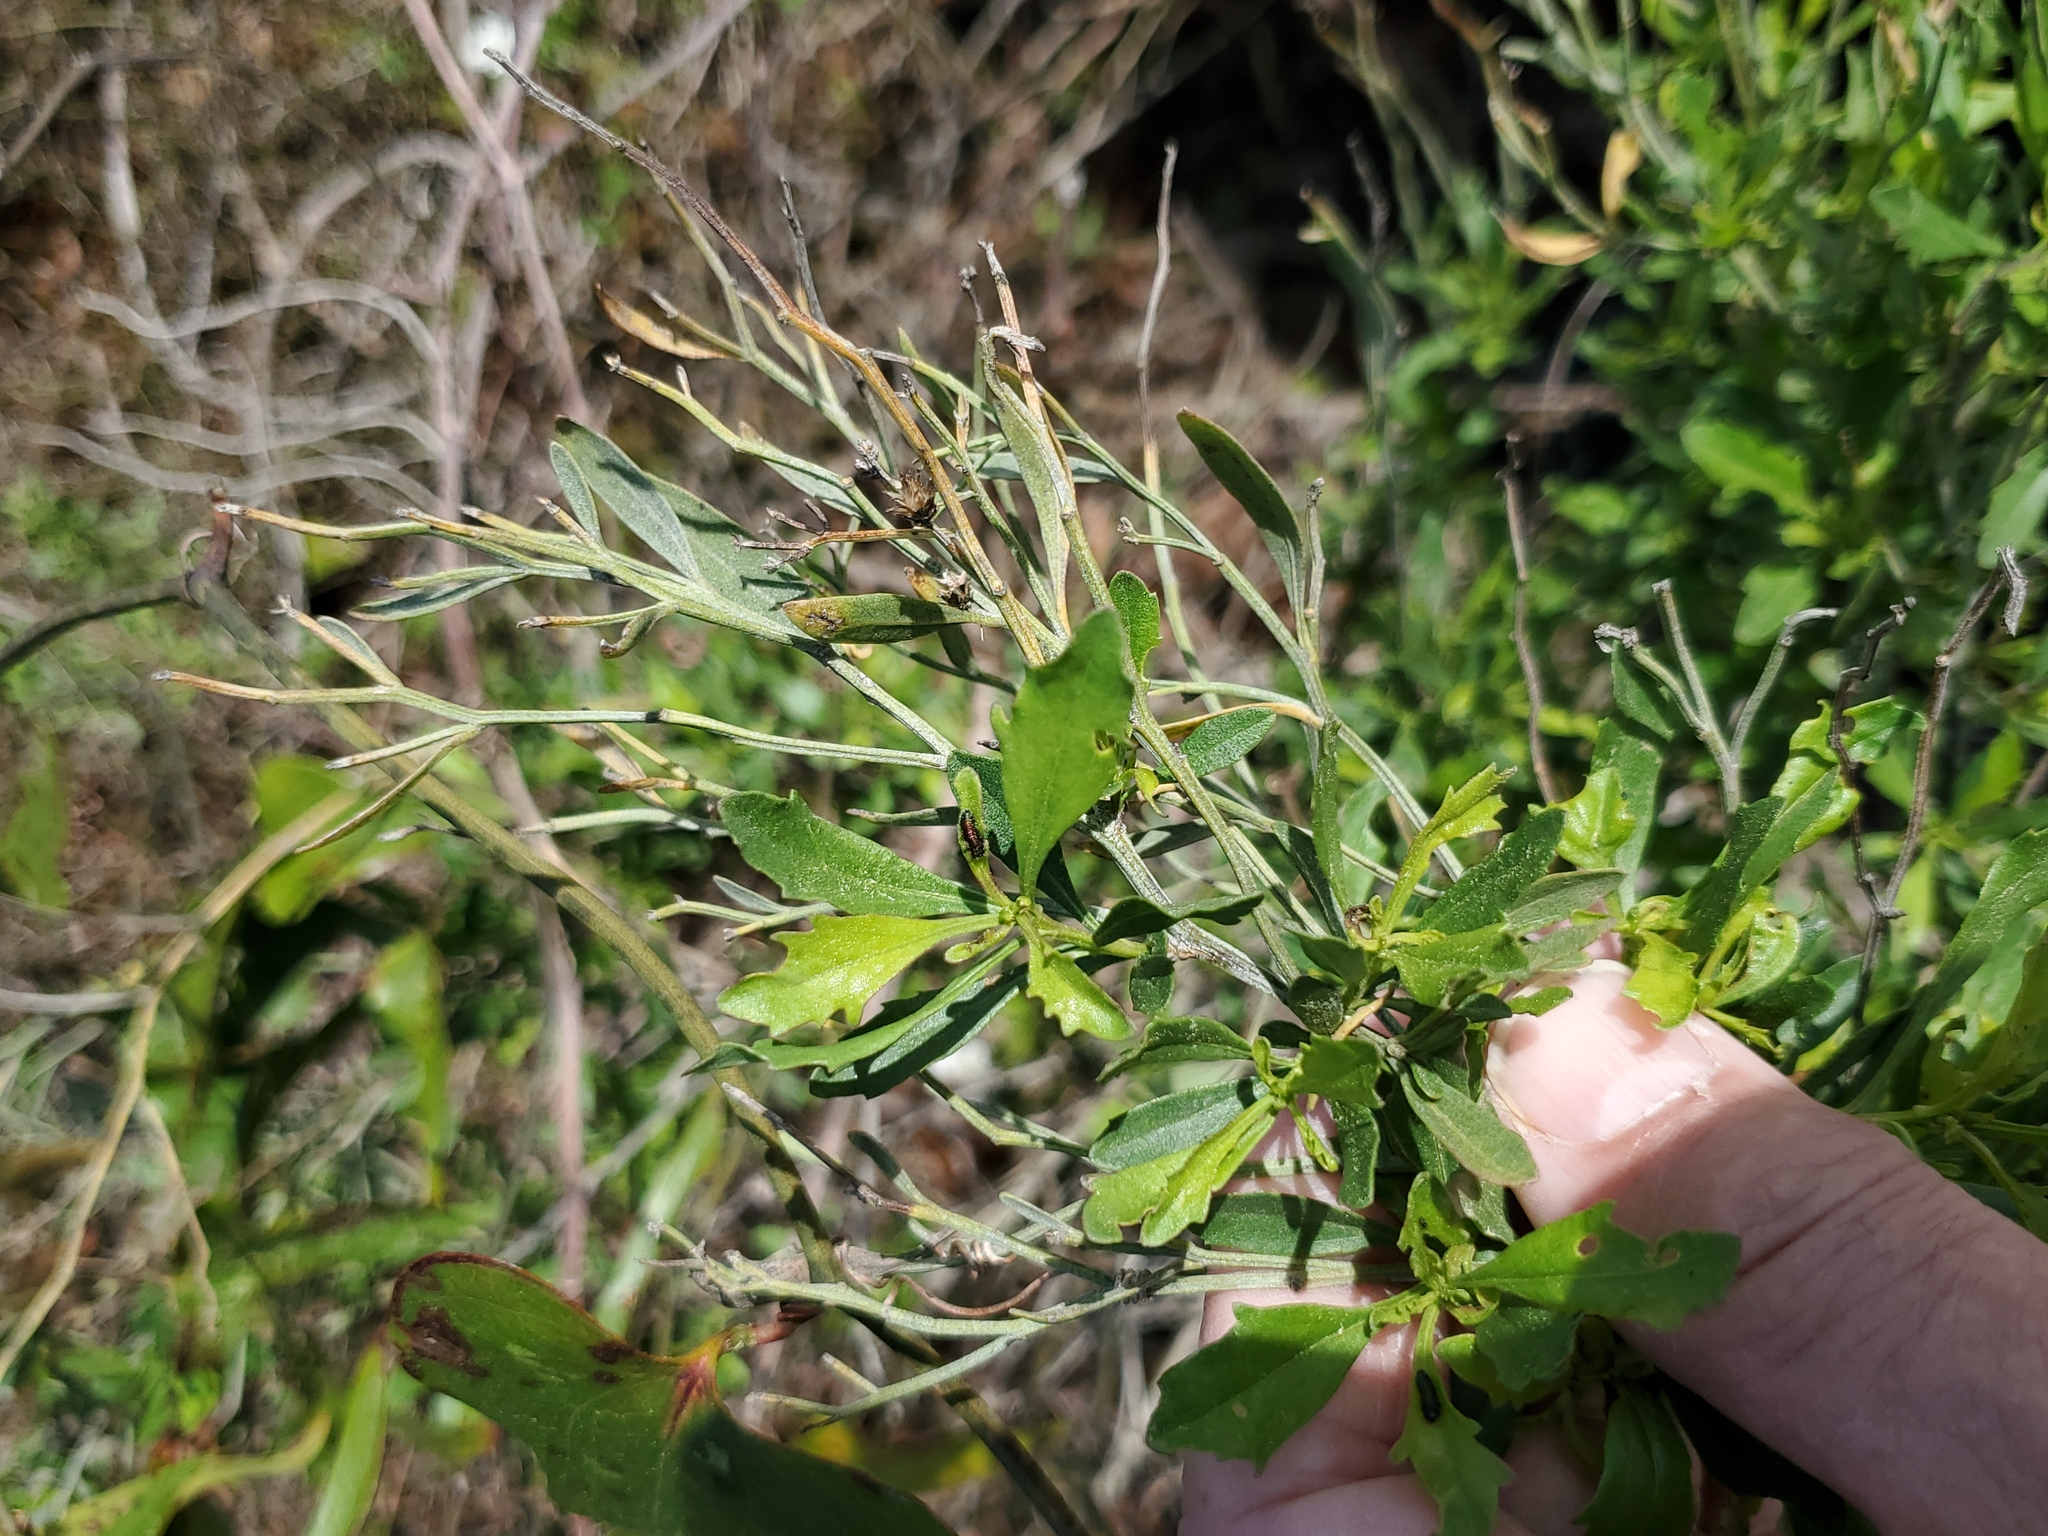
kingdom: Plantae
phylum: Tracheophyta
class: Magnoliopsida
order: Asterales
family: Asteraceae
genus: Baccharis
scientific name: Baccharis halimifolia
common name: Eastern baccharis
